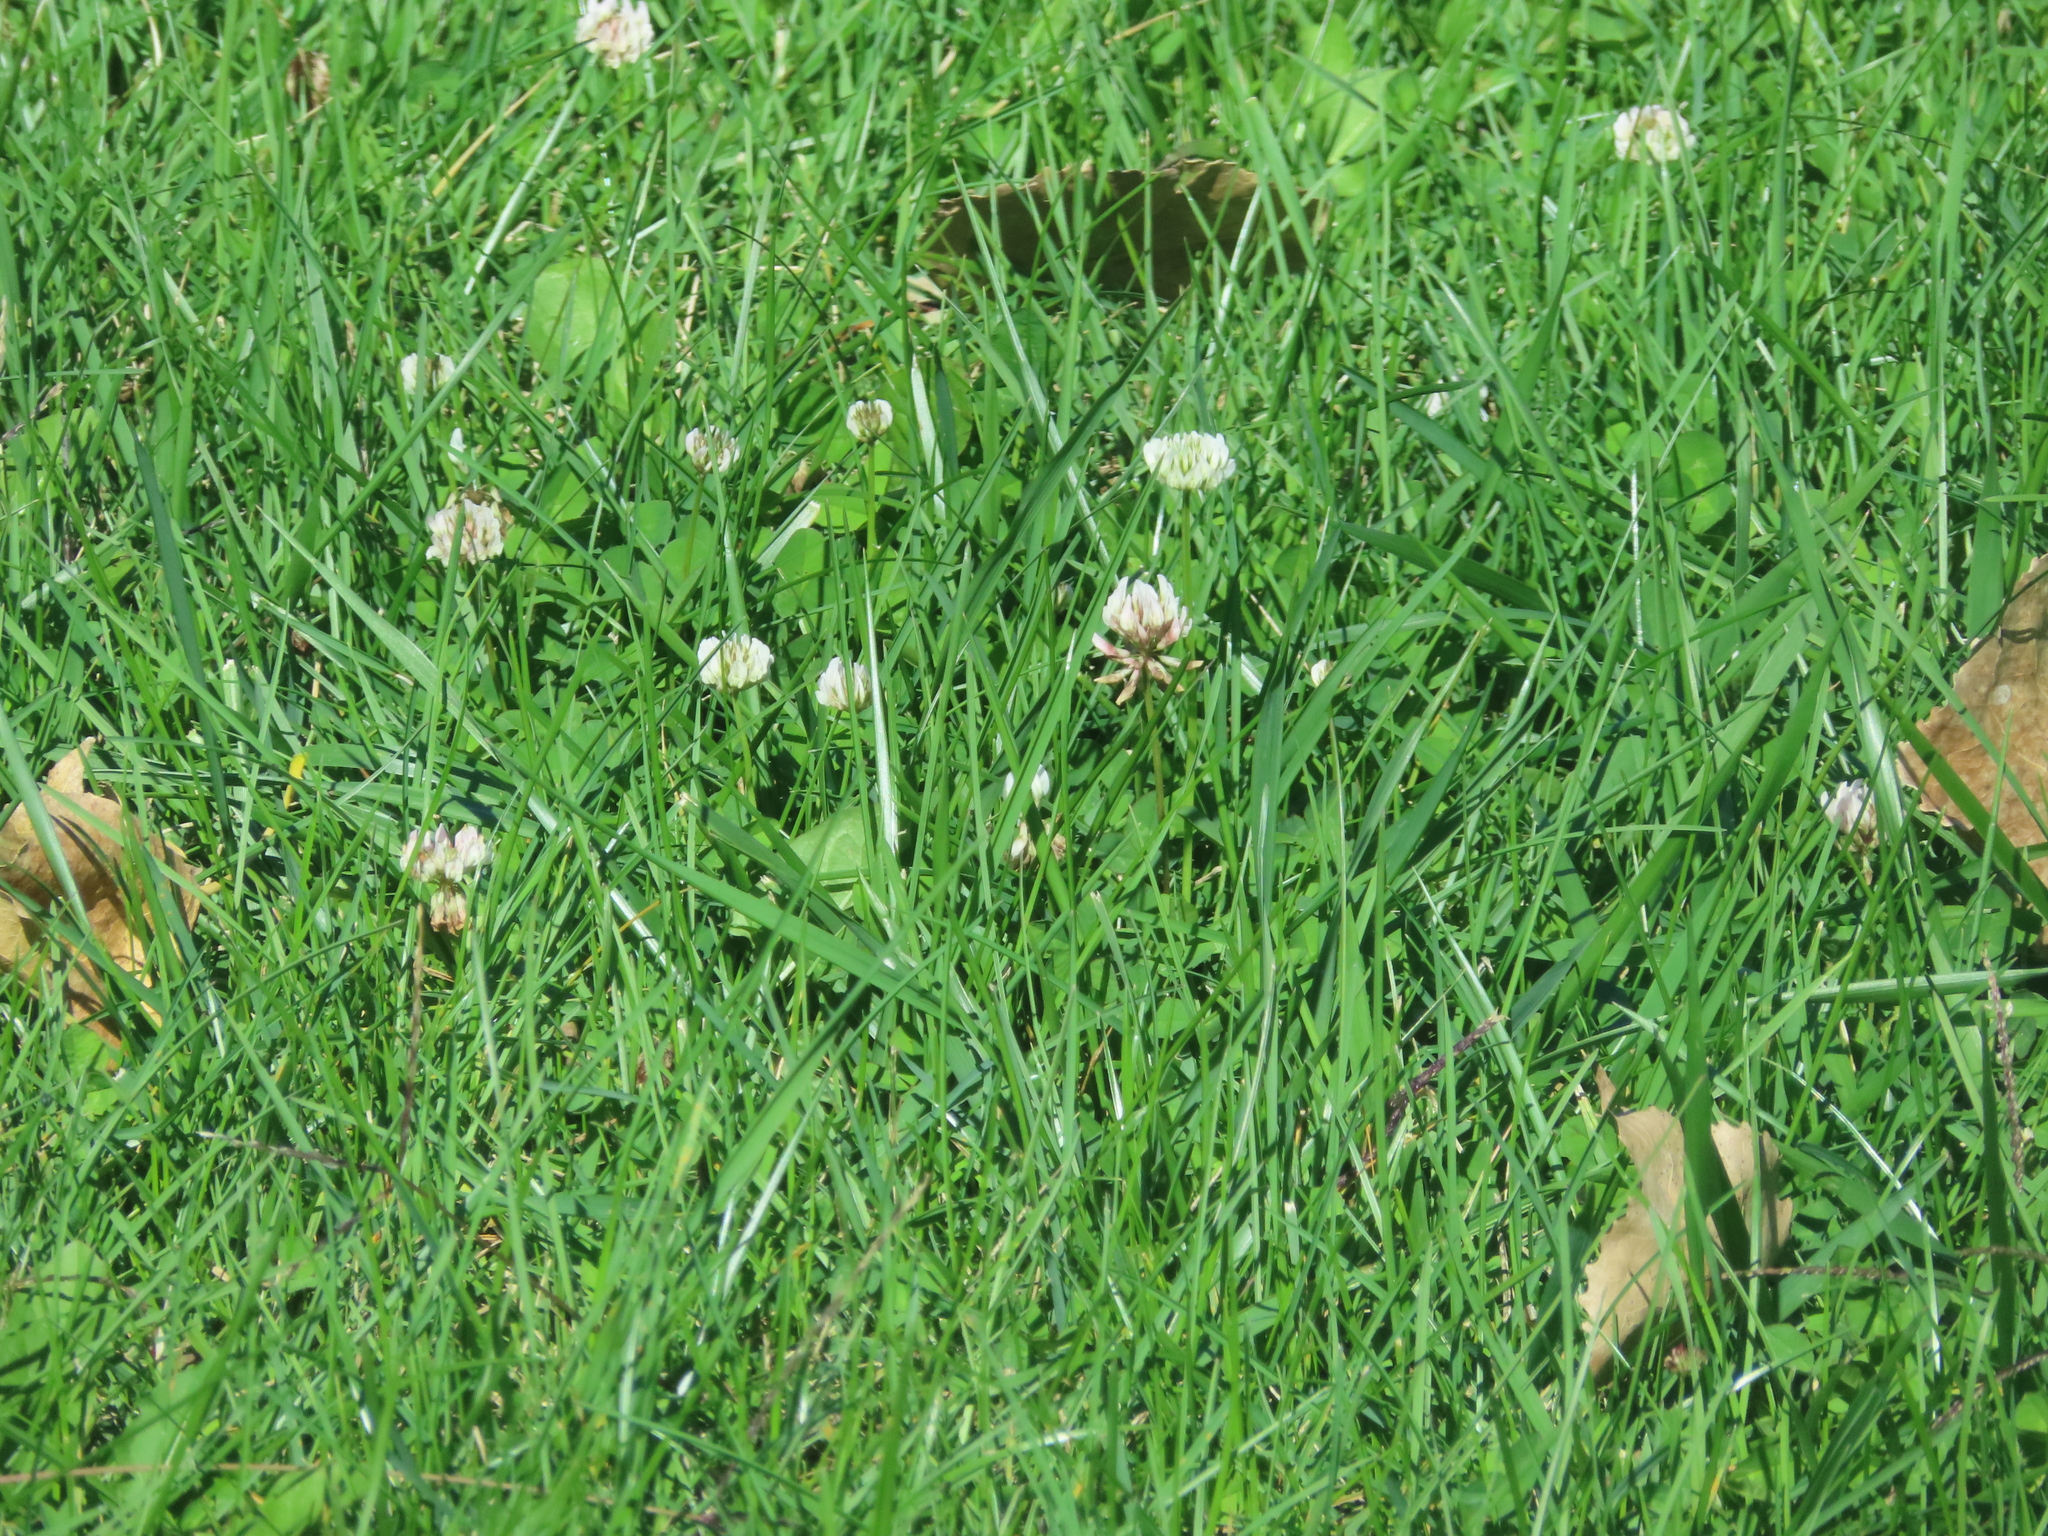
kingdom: Plantae
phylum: Tracheophyta
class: Magnoliopsida
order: Fabales
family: Fabaceae
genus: Trifolium
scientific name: Trifolium repens
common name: White clover
